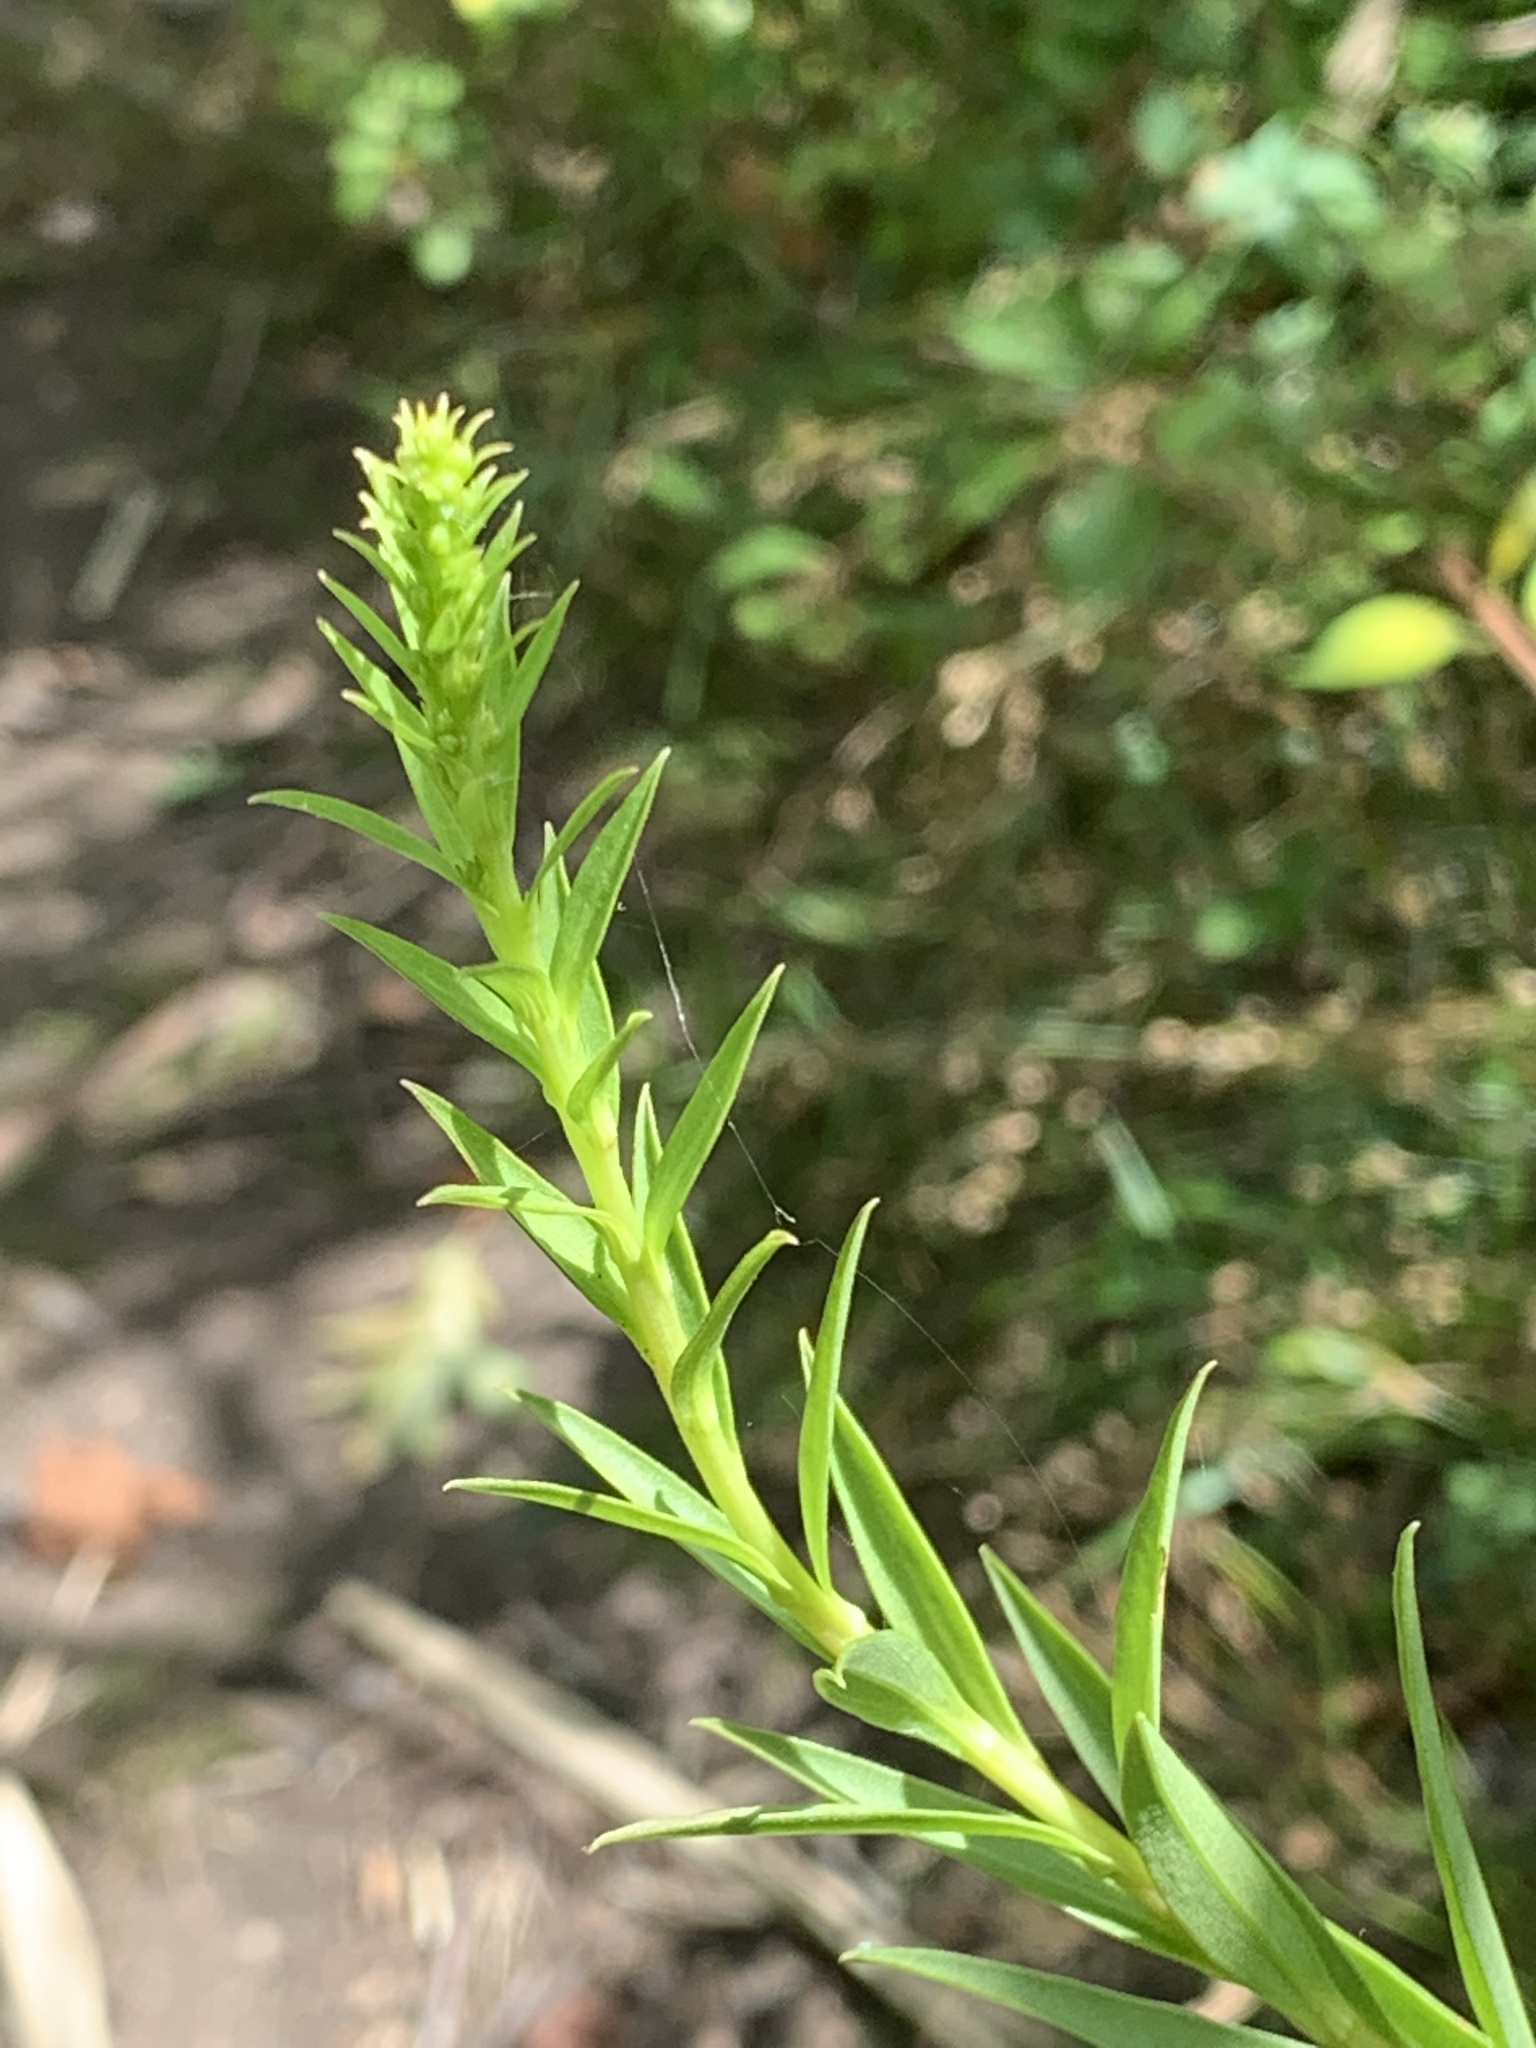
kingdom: Plantae
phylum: Tracheophyta
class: Magnoliopsida
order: Asterales
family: Asteraceae
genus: Solidago
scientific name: Solidago sempervirens
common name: Salt-marsh goldenrod
